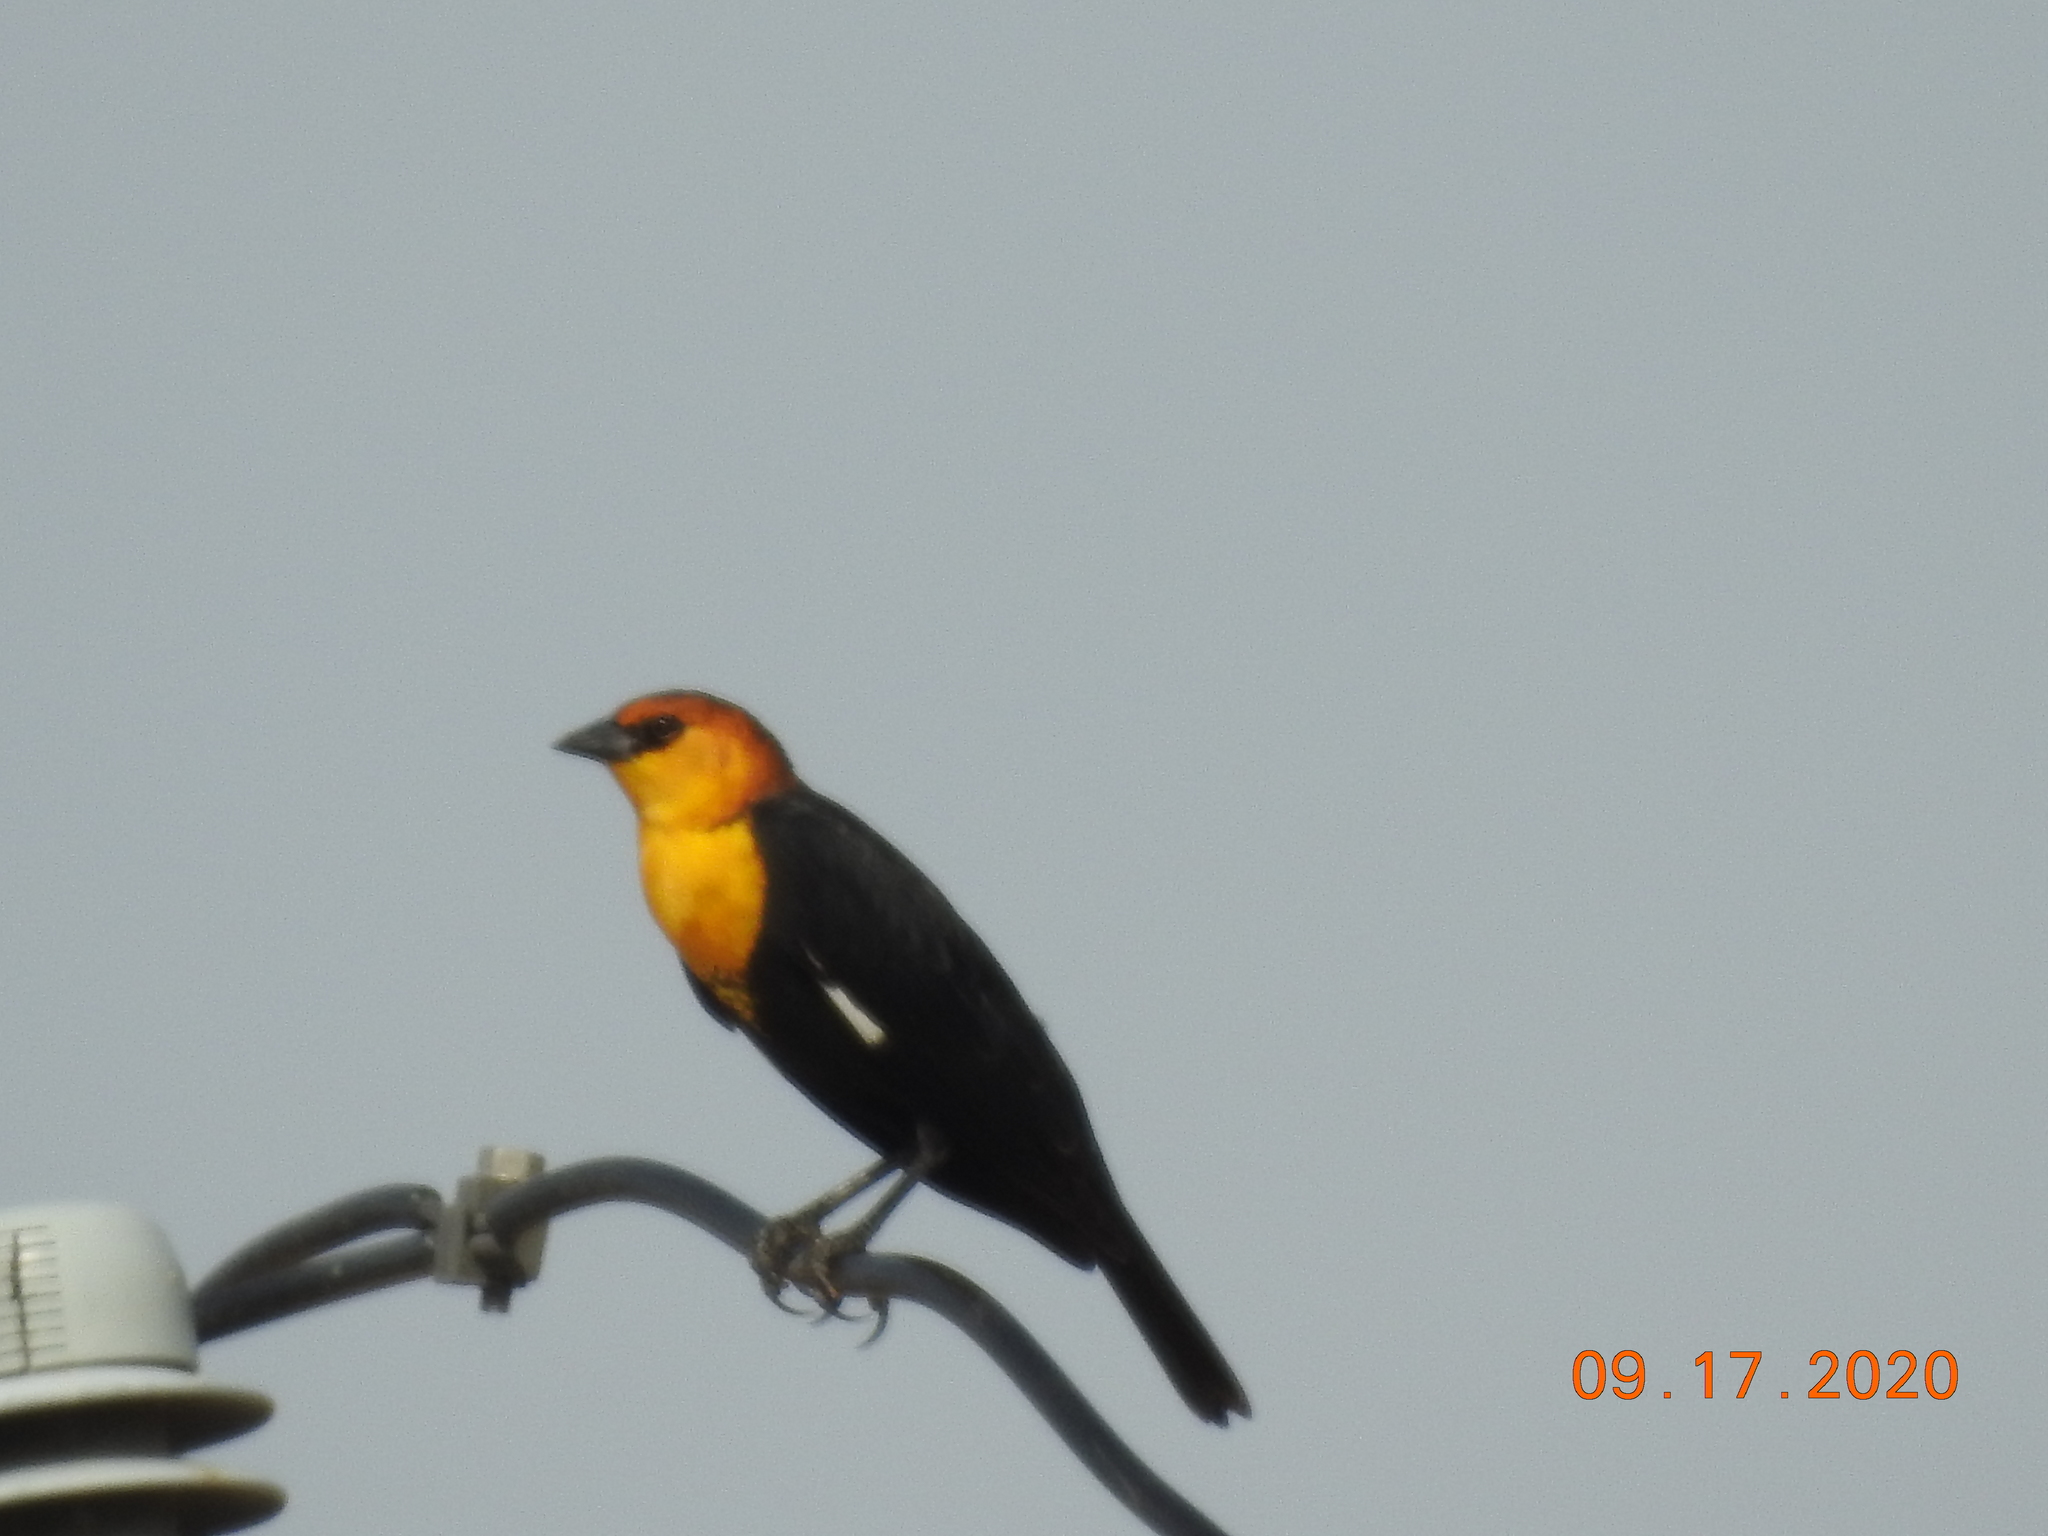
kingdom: Animalia
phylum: Chordata
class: Aves
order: Passeriformes
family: Icteridae
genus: Xanthocephalus
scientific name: Xanthocephalus xanthocephalus
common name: Yellow-headed blackbird
